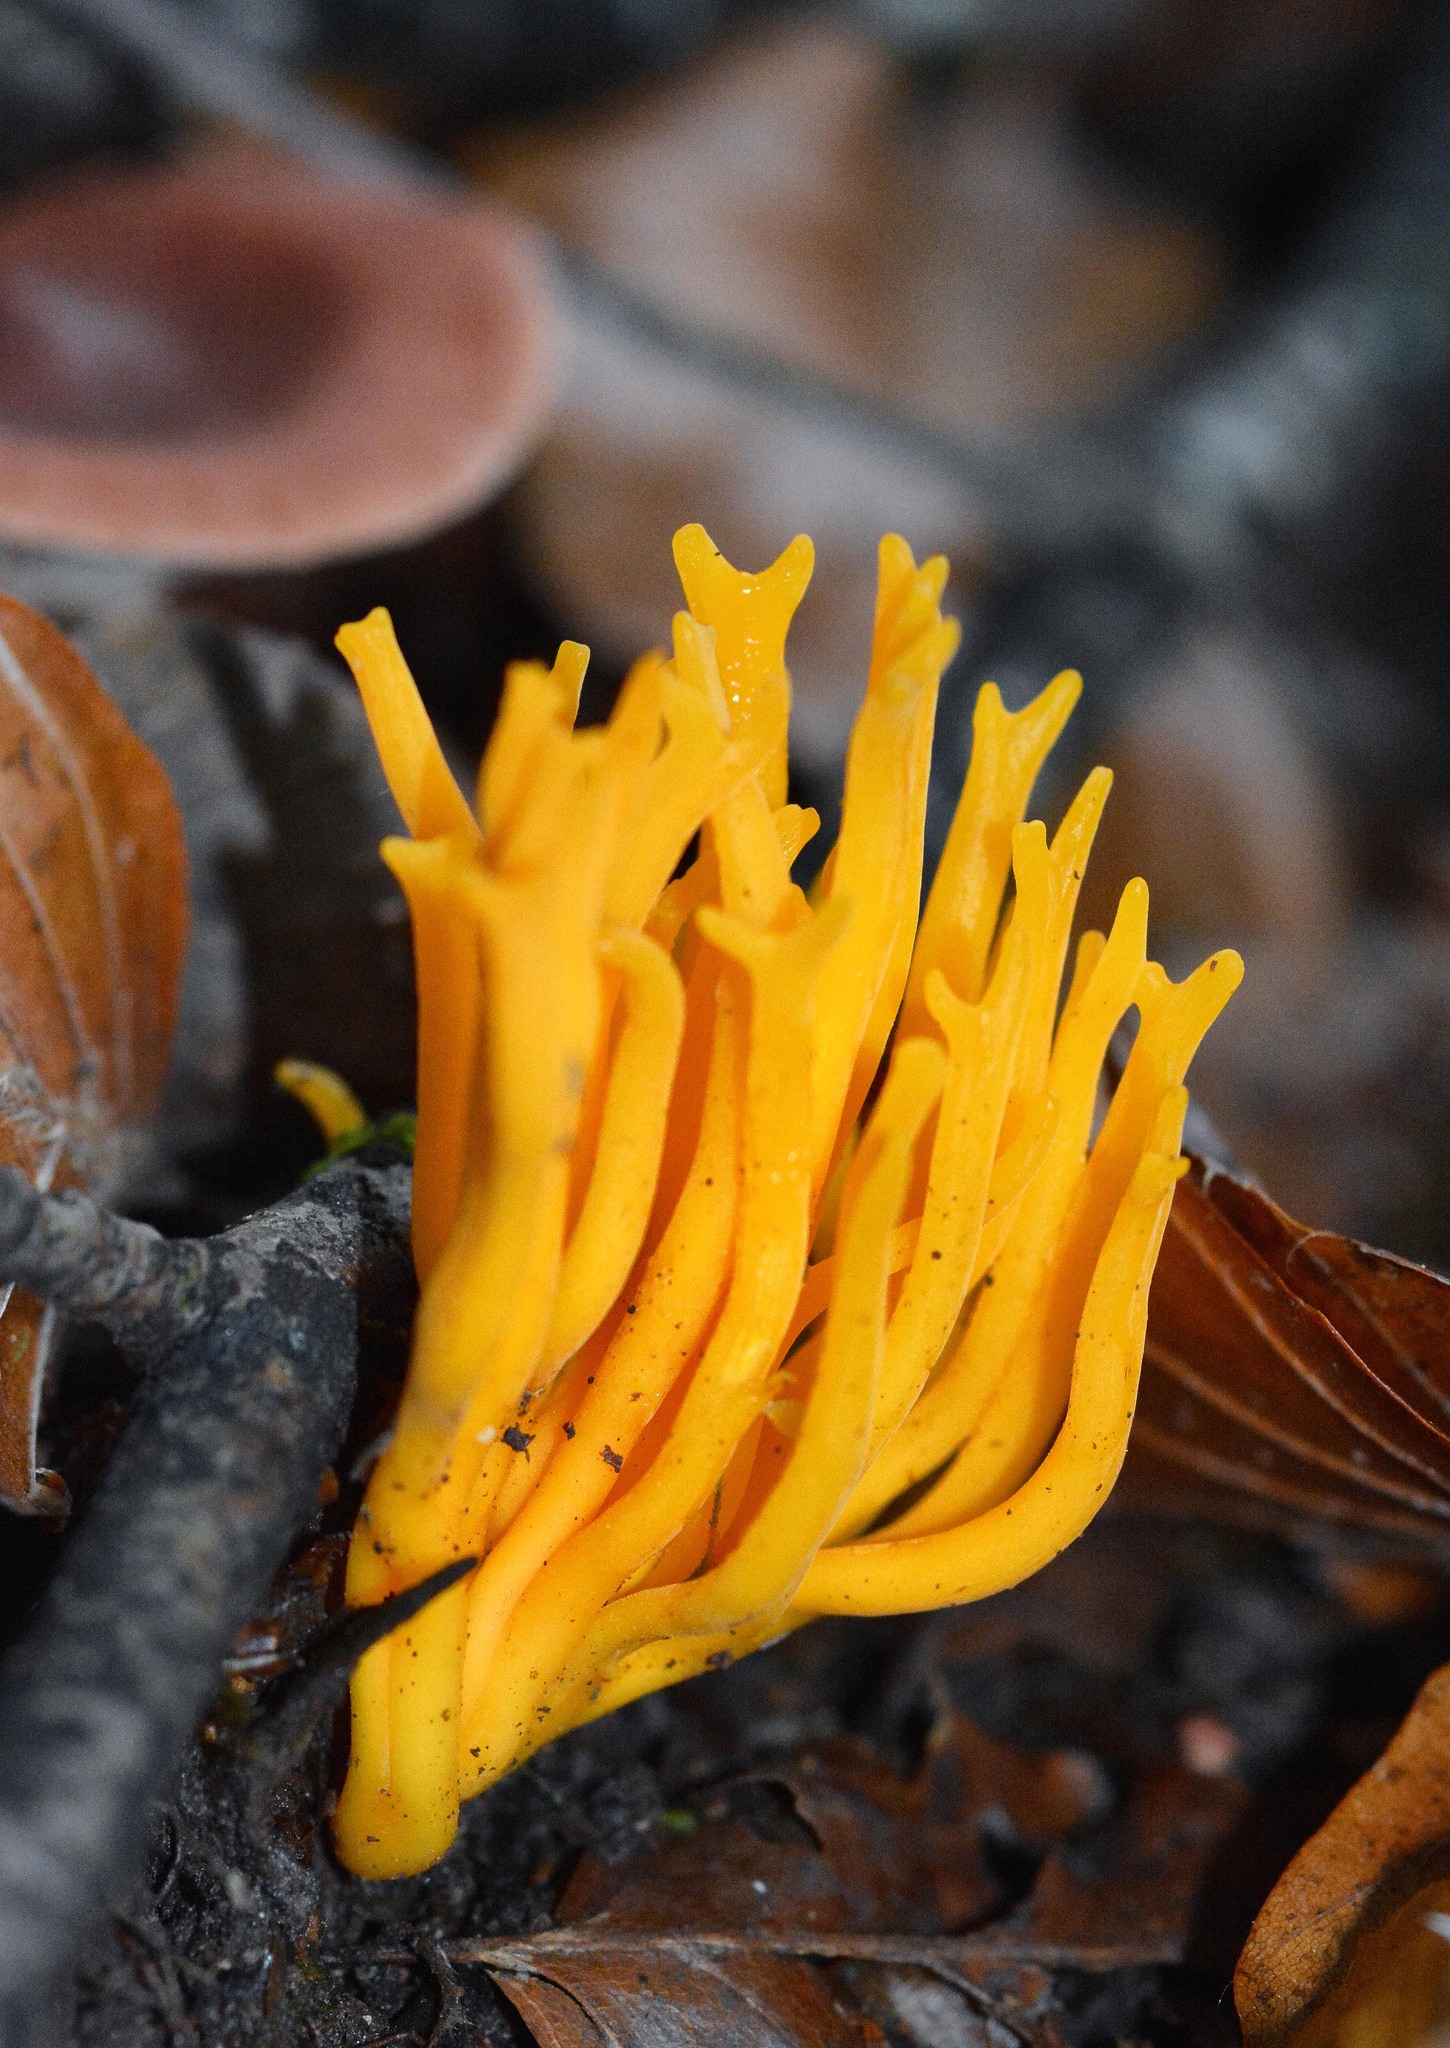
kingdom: Fungi
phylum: Basidiomycota
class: Dacrymycetes
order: Dacrymycetales
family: Dacrymycetaceae
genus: Calocera
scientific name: Calocera viscosa
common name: Yellow stagshorn
